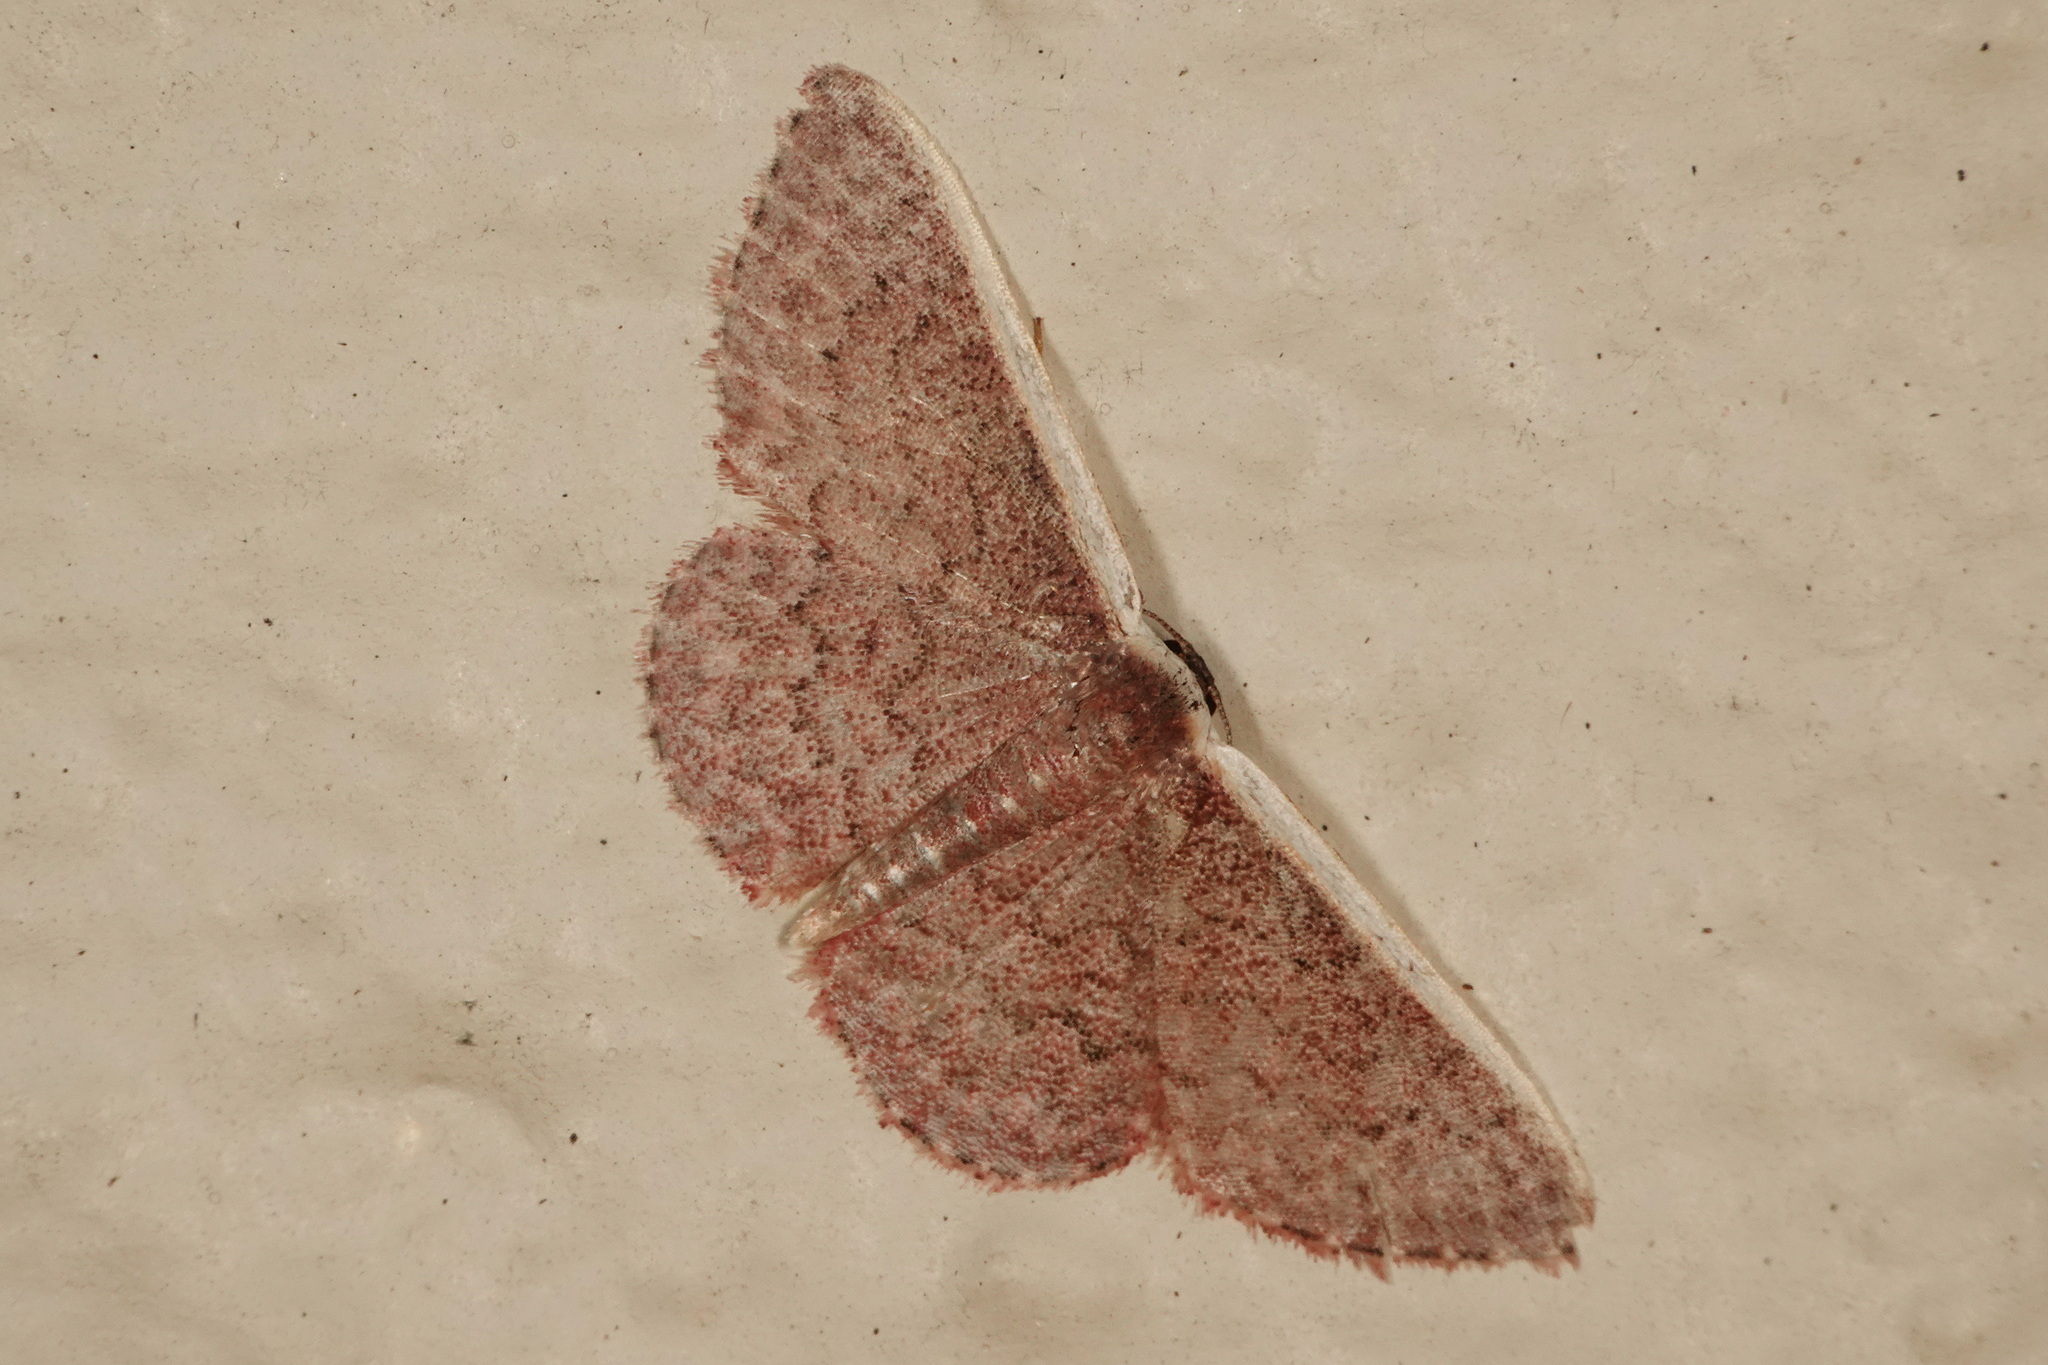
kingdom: Animalia
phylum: Arthropoda
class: Insecta
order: Lepidoptera
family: Geometridae
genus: Idaea
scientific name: Idaea inversata
